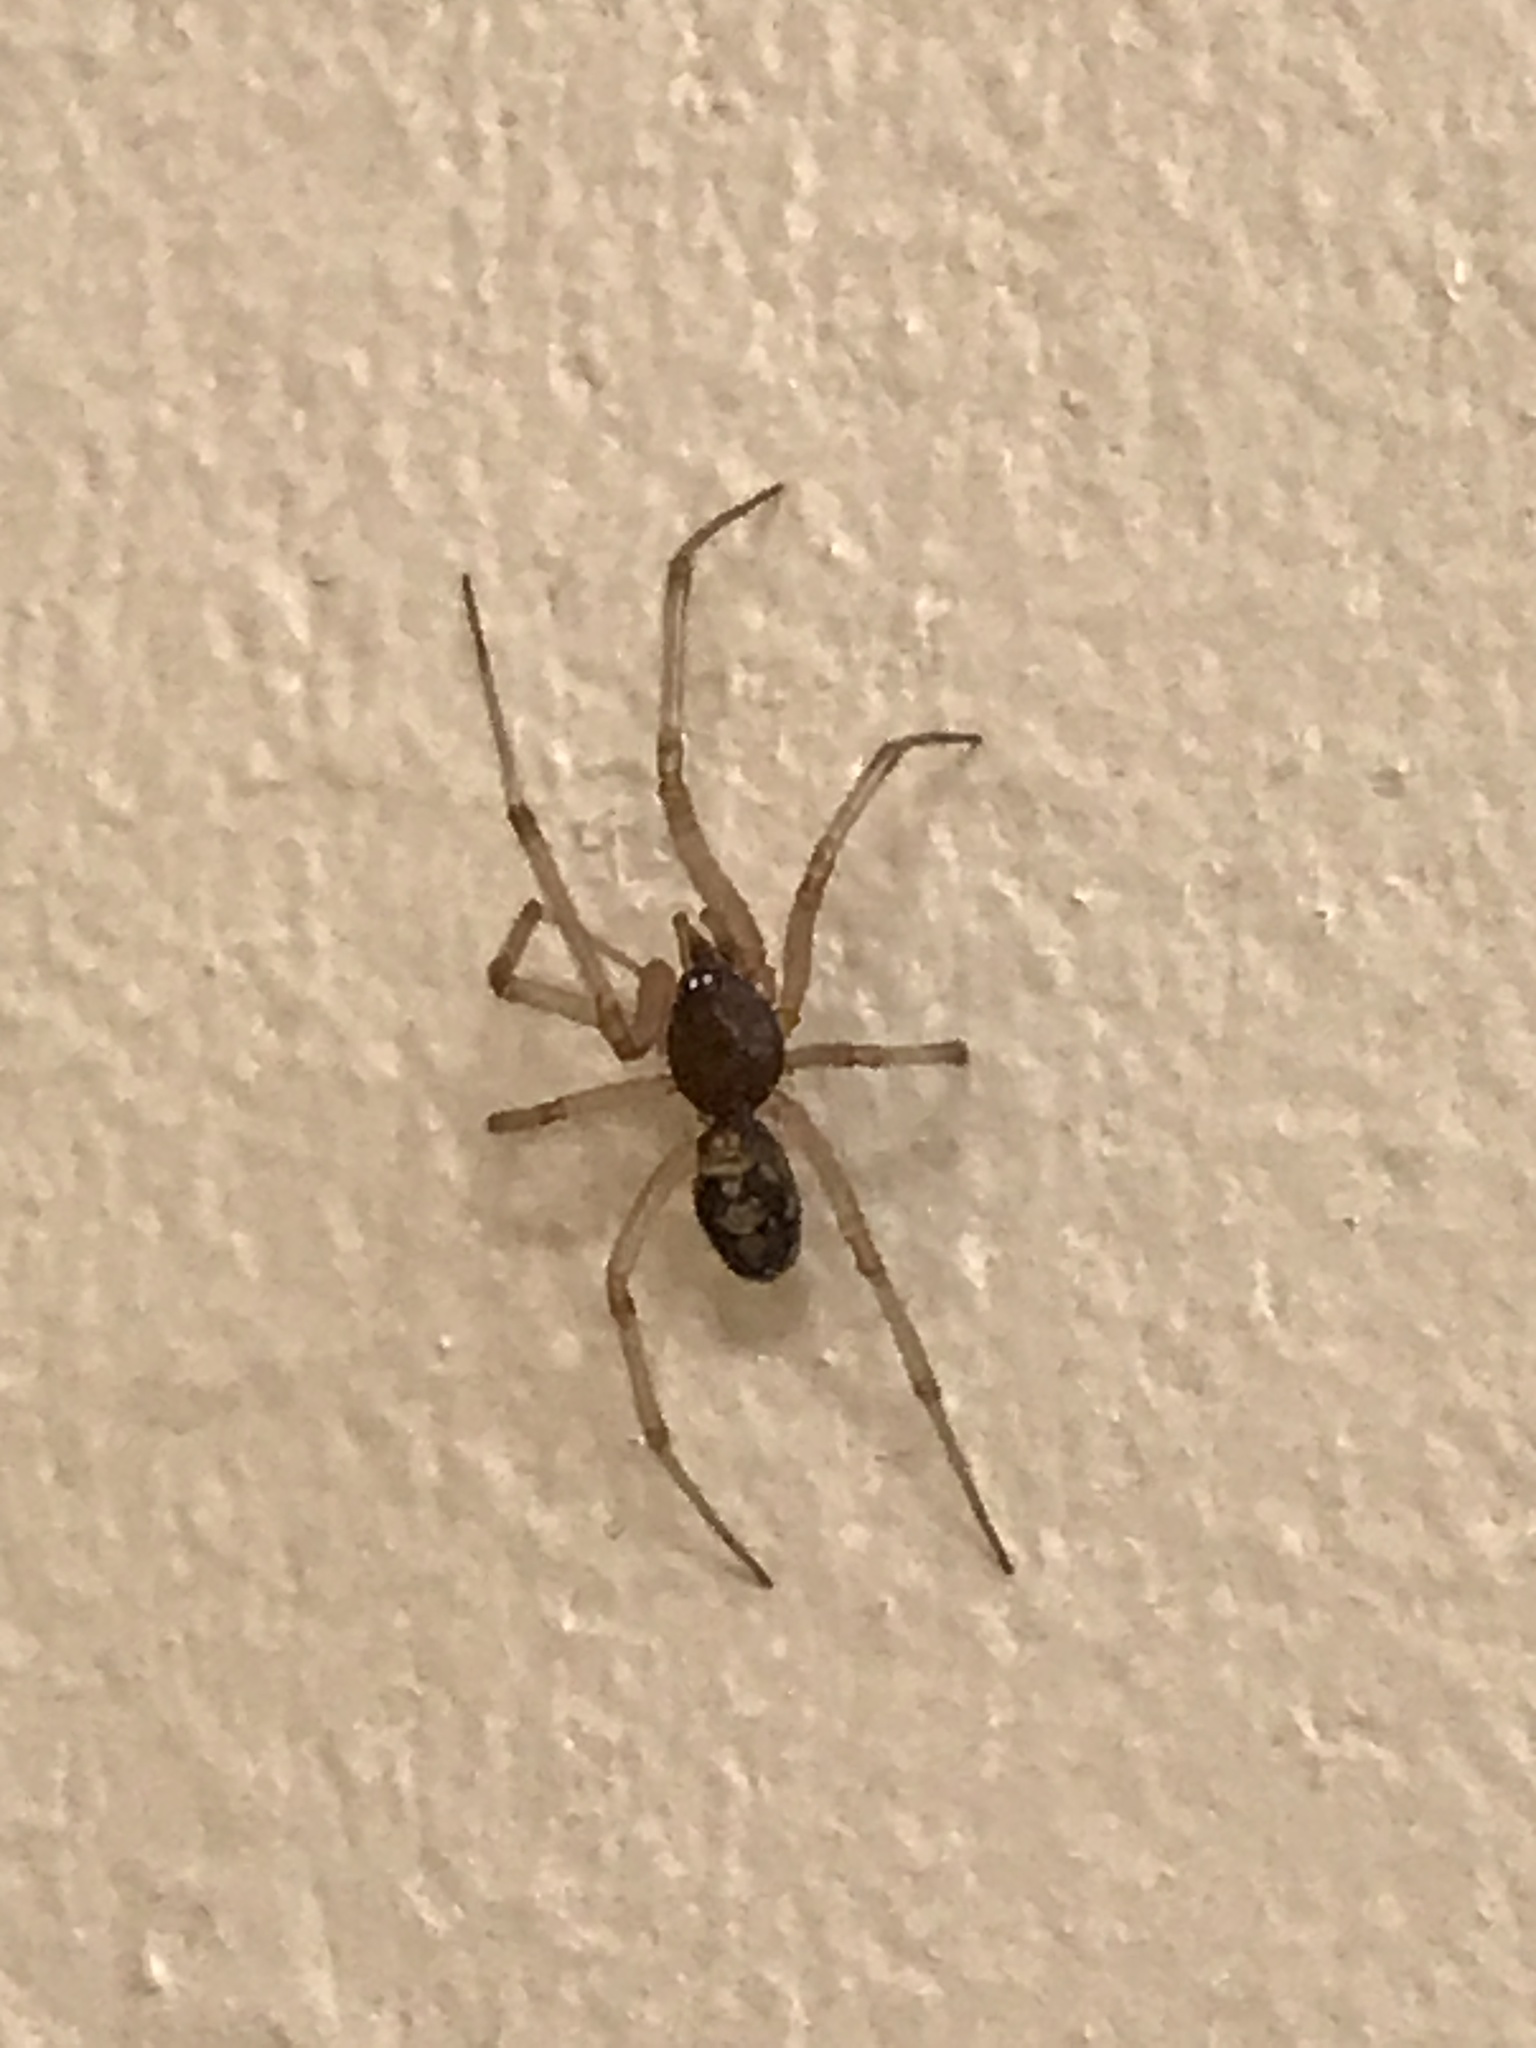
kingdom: Animalia
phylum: Arthropoda
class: Arachnida
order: Araneae
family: Theridiidae
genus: Steatoda
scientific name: Steatoda triangulosa
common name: Triangulate bud spider
